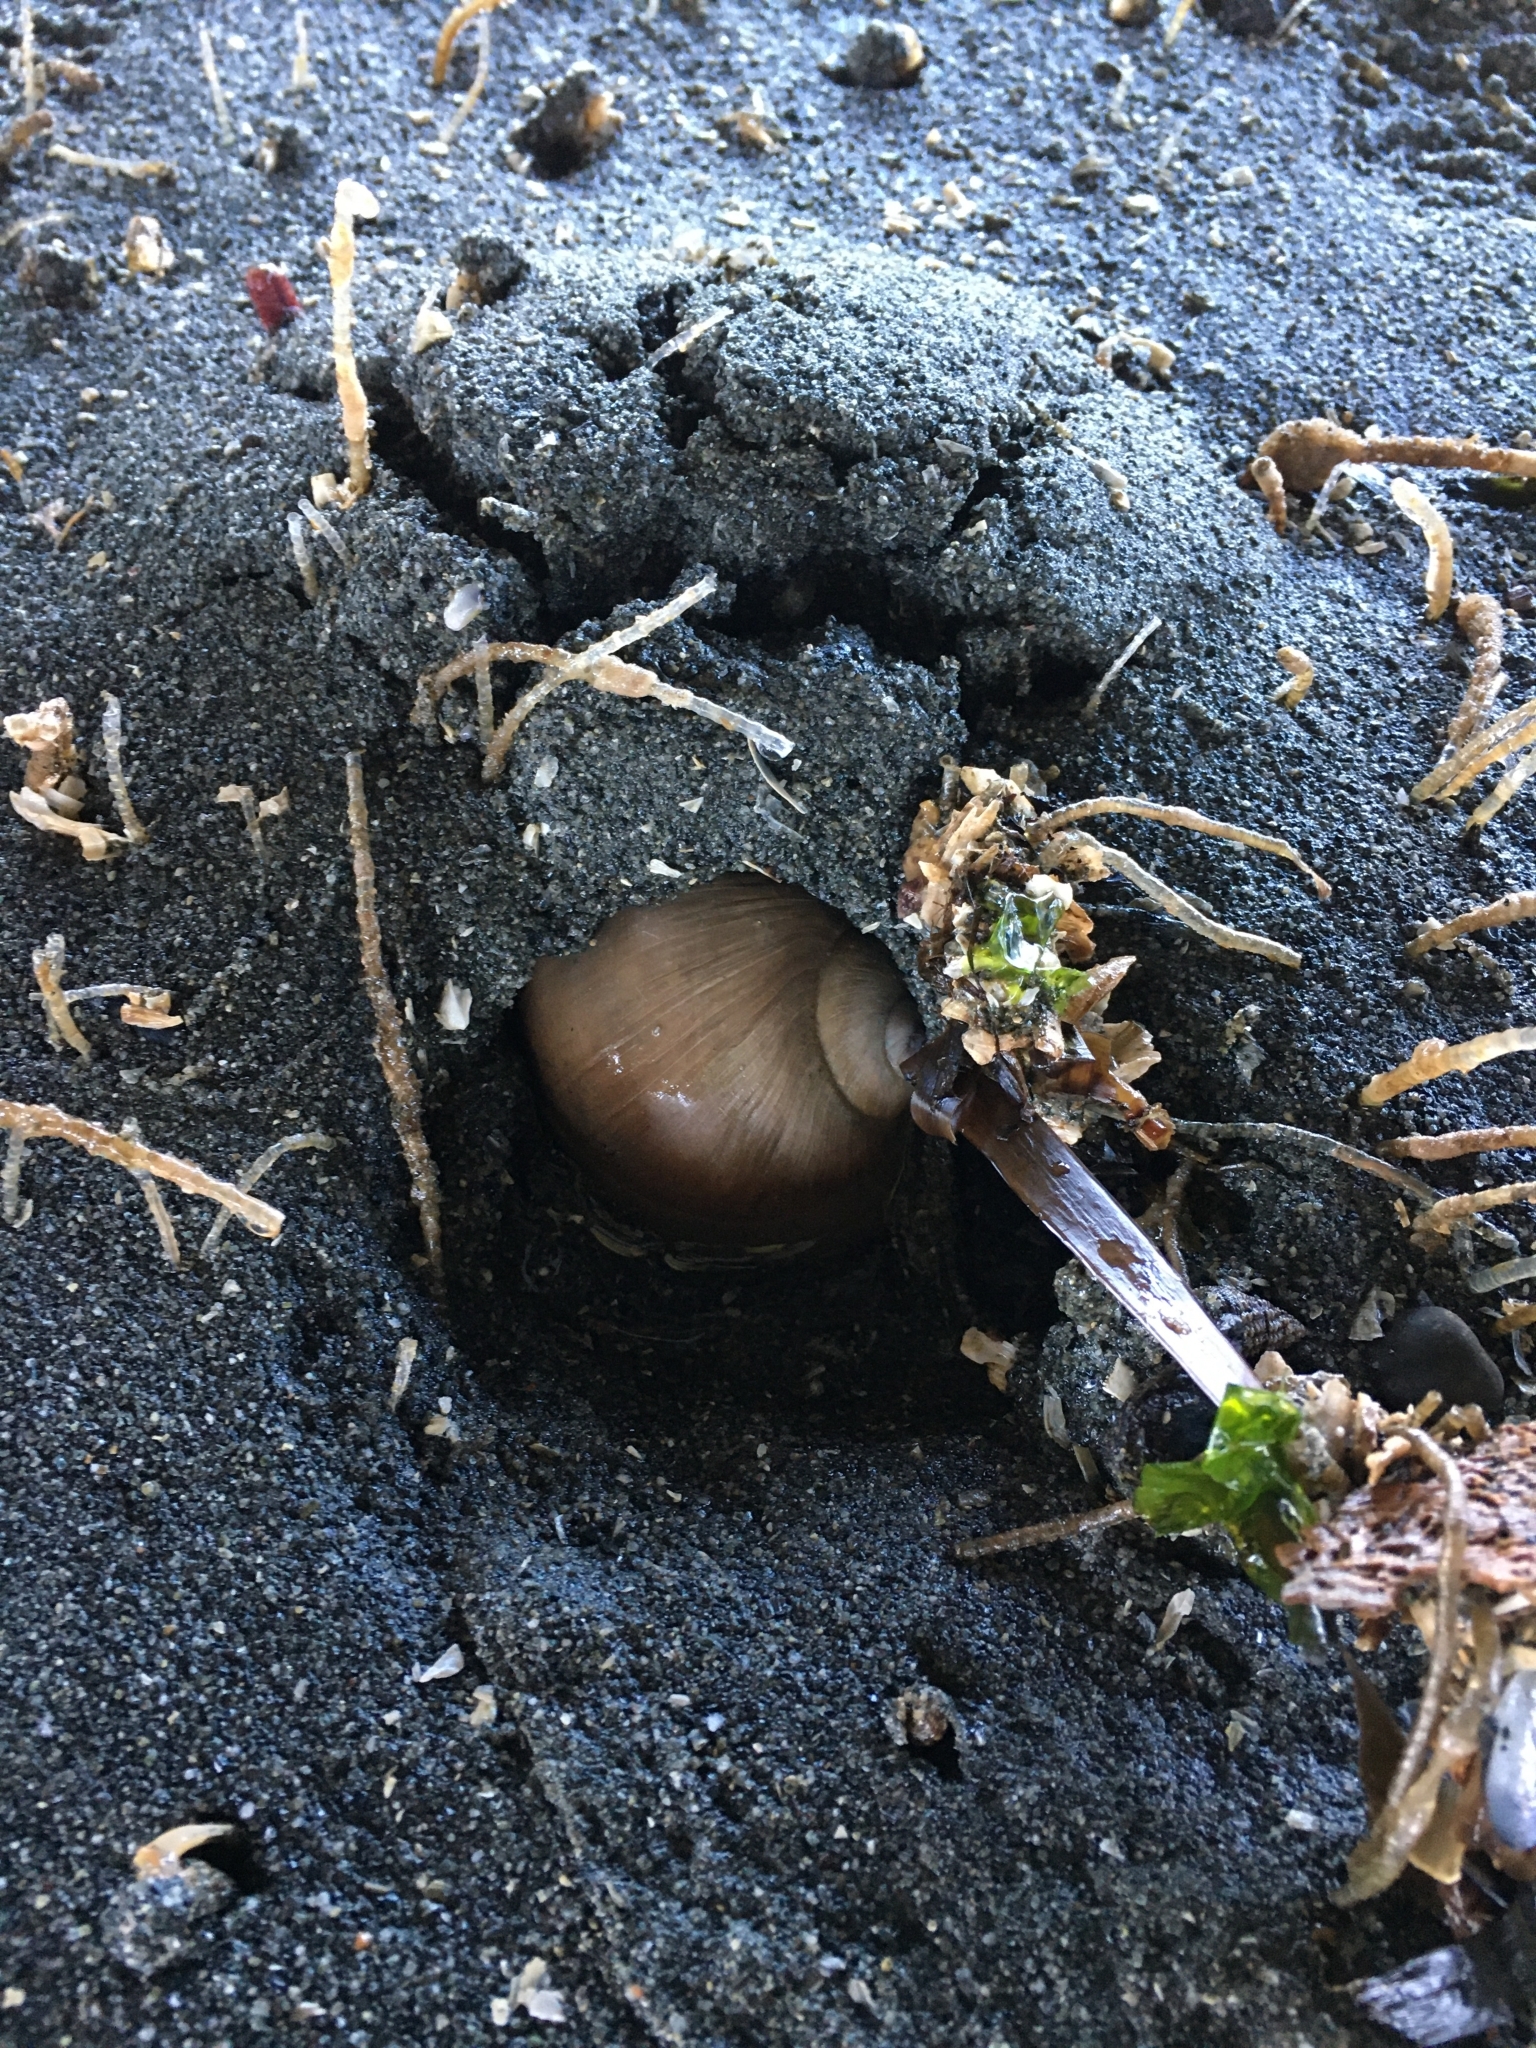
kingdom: Animalia
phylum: Mollusca
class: Gastropoda
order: Littorinimorpha
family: Naticidae
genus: Neverita
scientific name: Neverita lewisii
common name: Lewis' moonsnail
